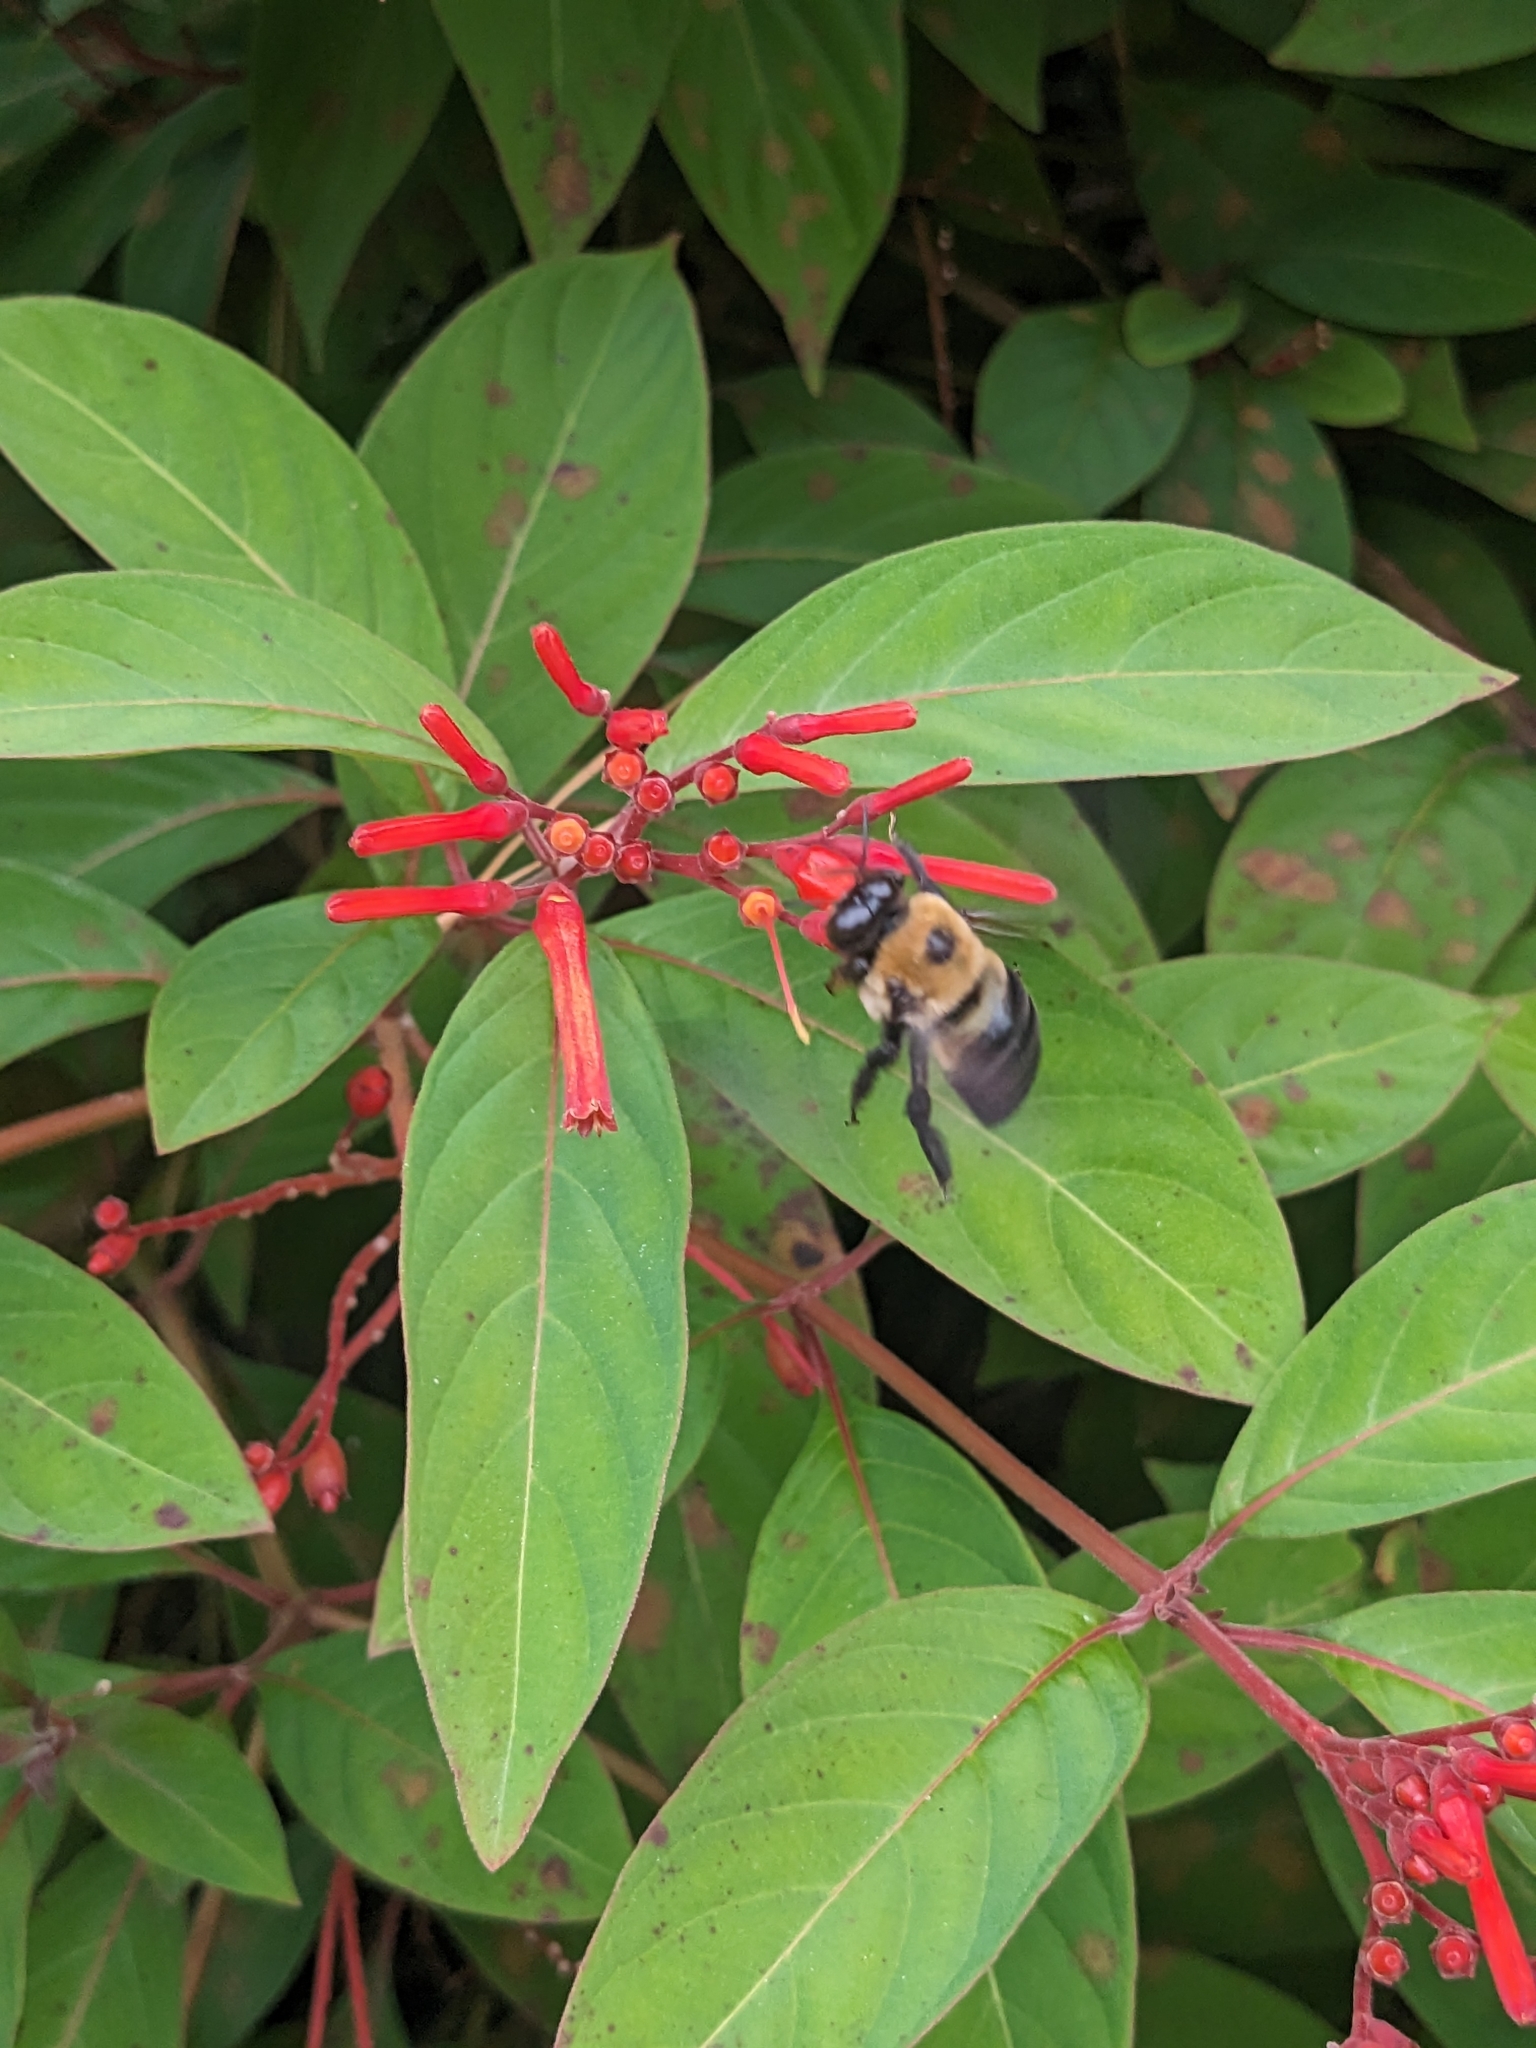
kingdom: Animalia
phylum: Arthropoda
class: Insecta
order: Hymenoptera
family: Apidae
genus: Xylocopa
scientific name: Xylocopa virginica
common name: Carpenter bee
